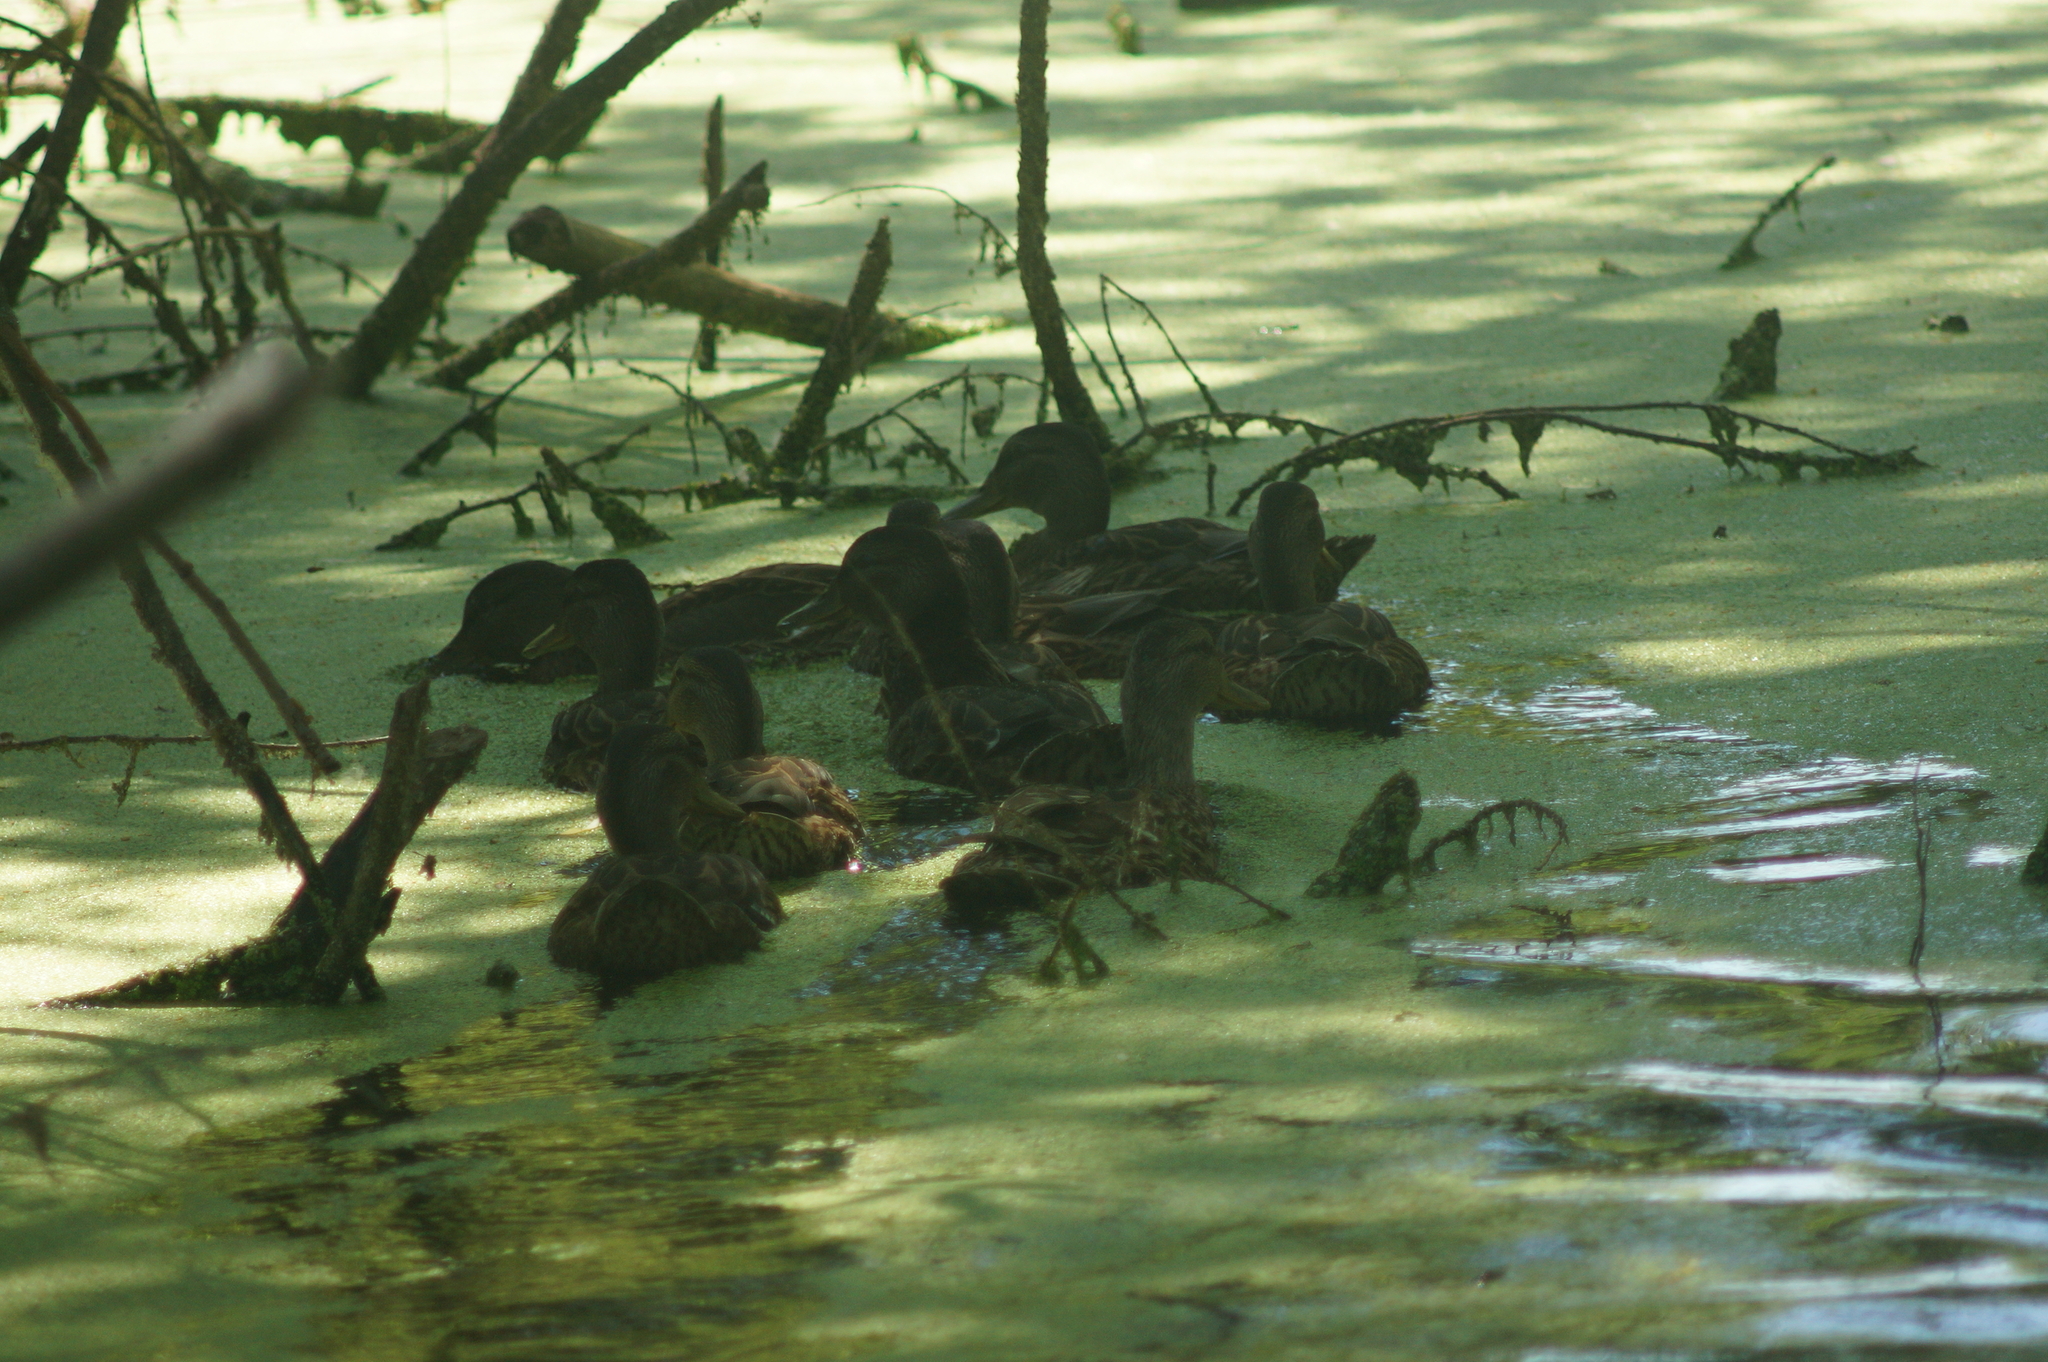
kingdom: Animalia
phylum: Chordata
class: Aves
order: Anseriformes
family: Anatidae
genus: Anas
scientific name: Anas platyrhynchos
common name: Mallard
